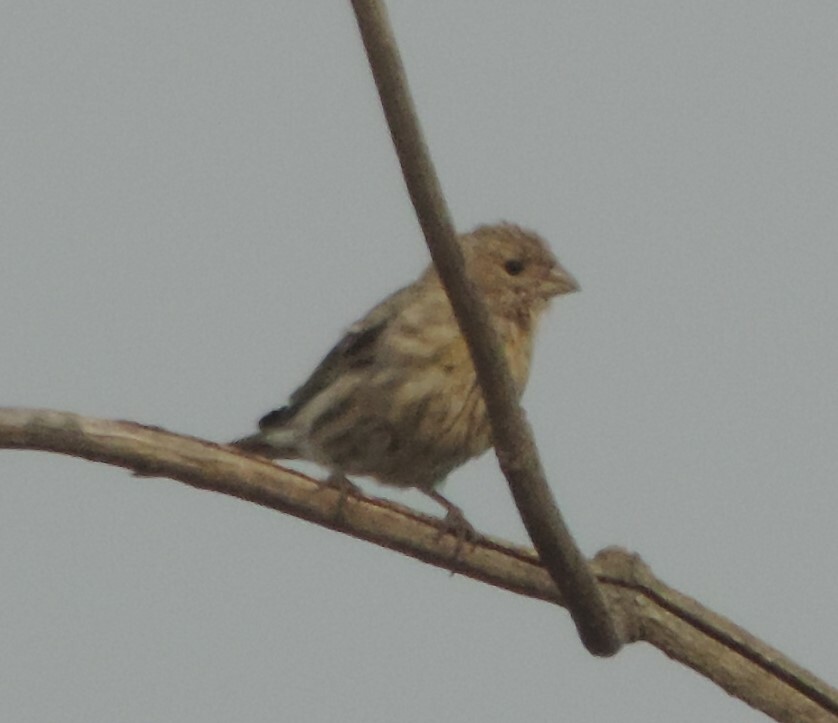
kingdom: Animalia
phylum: Chordata
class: Aves
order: Passeriformes
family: Fringillidae
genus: Haemorhous
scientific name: Haemorhous mexicanus
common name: House finch
